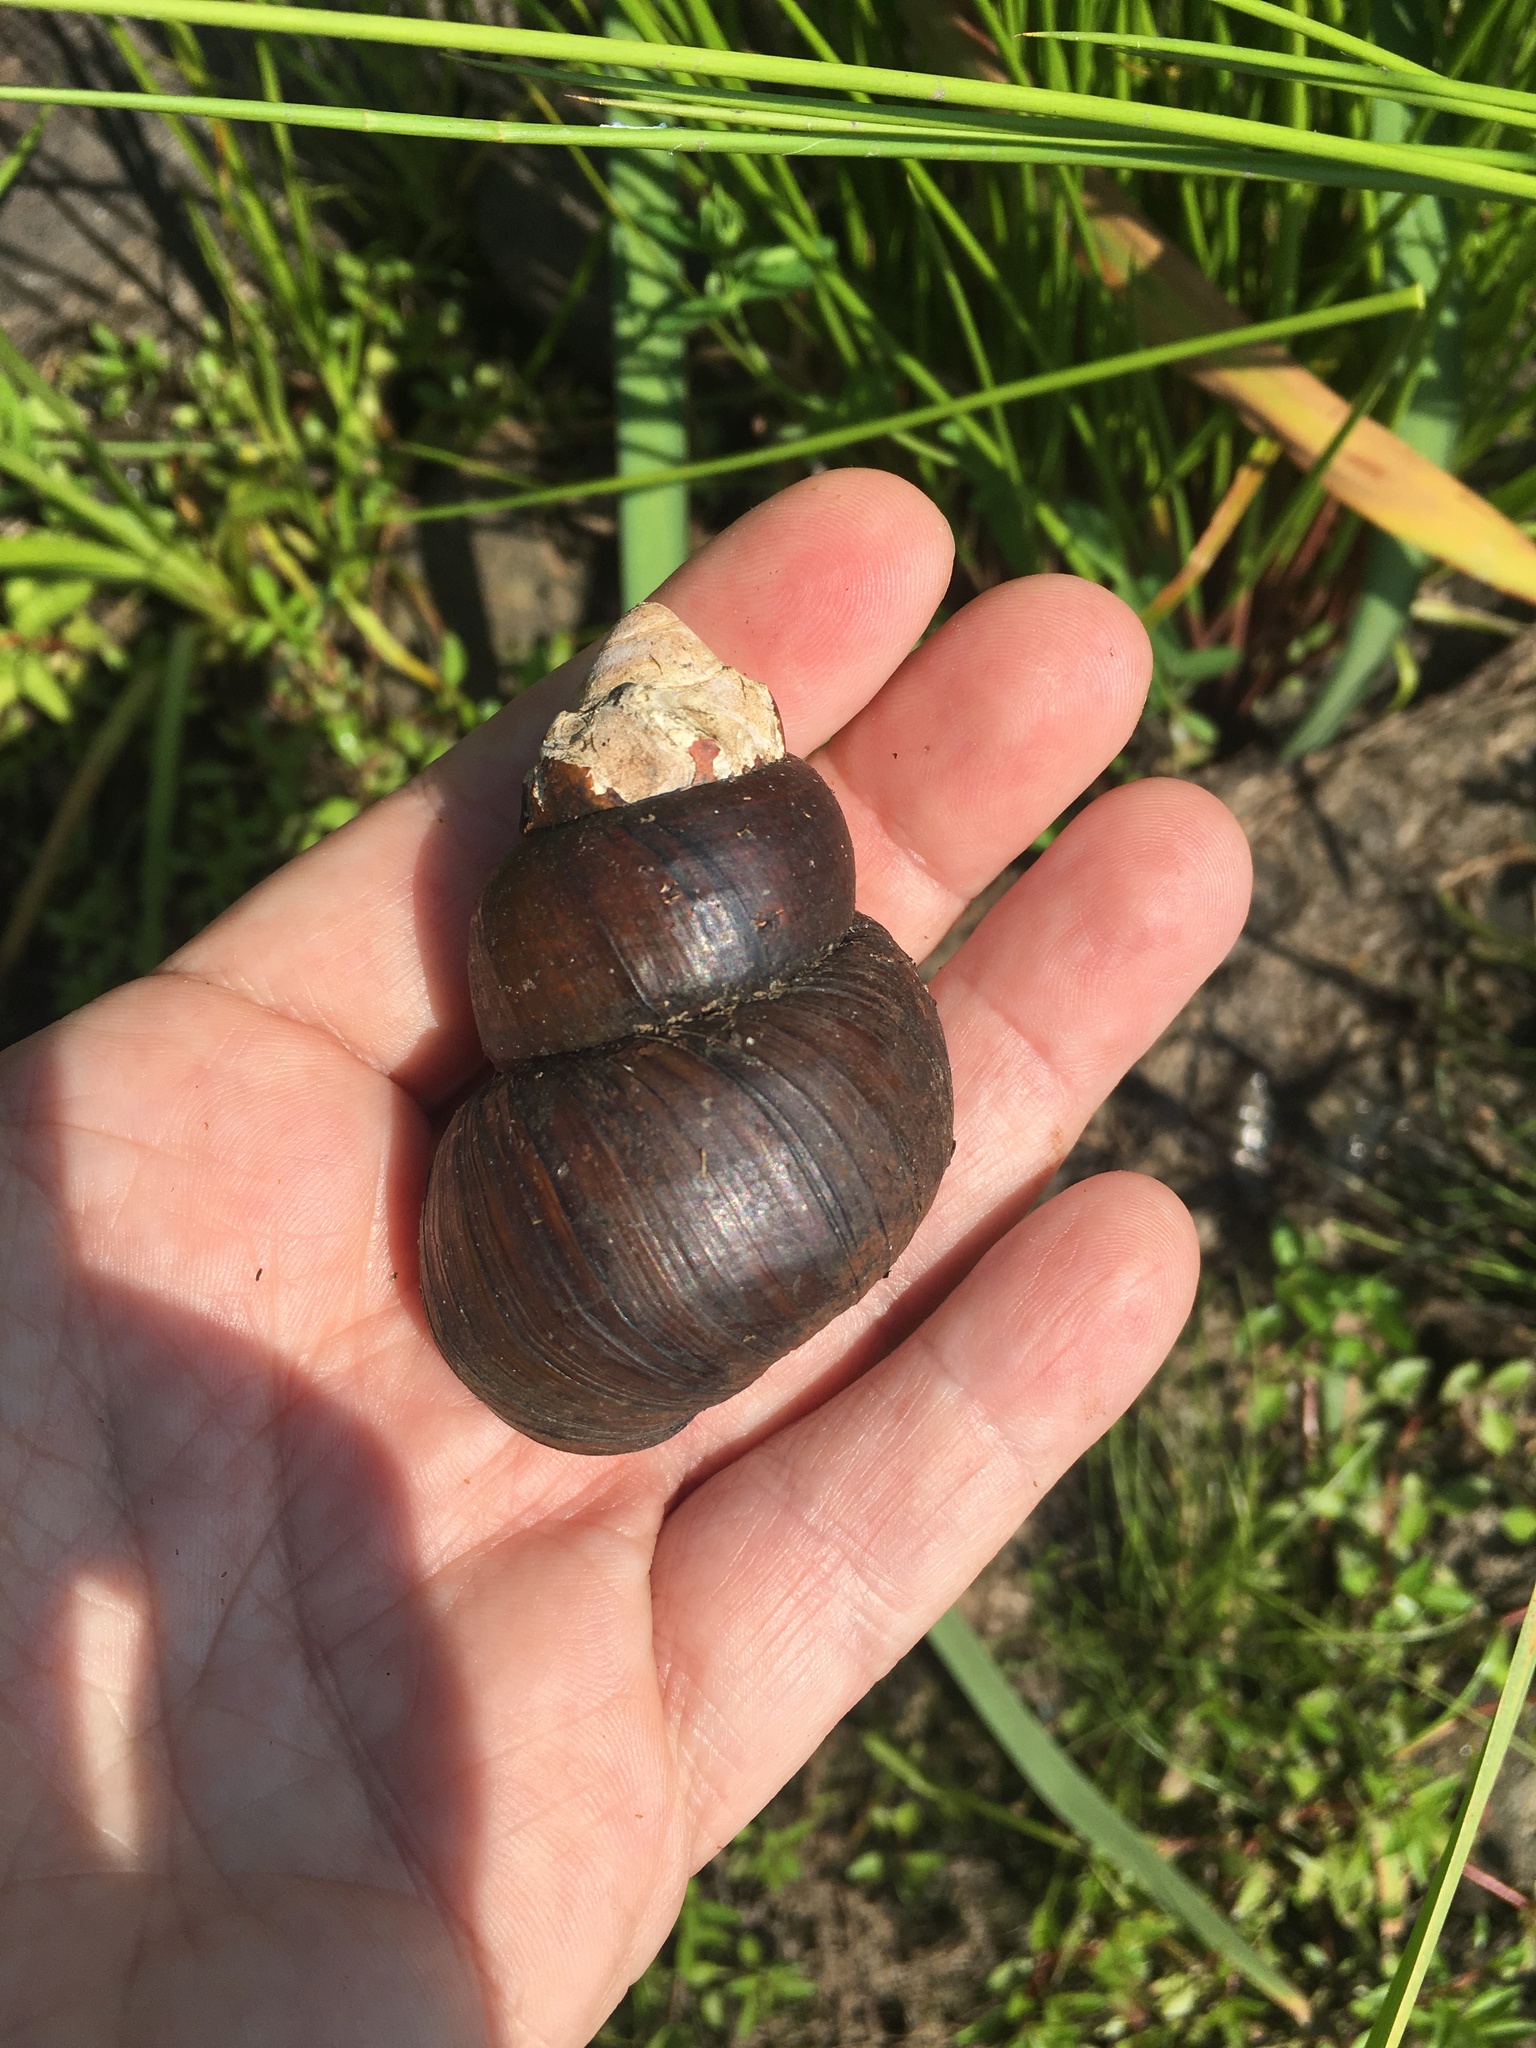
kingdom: Animalia
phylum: Mollusca
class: Gastropoda
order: Architaenioglossa
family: Viviparidae
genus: Cipangopaludina
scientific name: Cipangopaludina japonica
